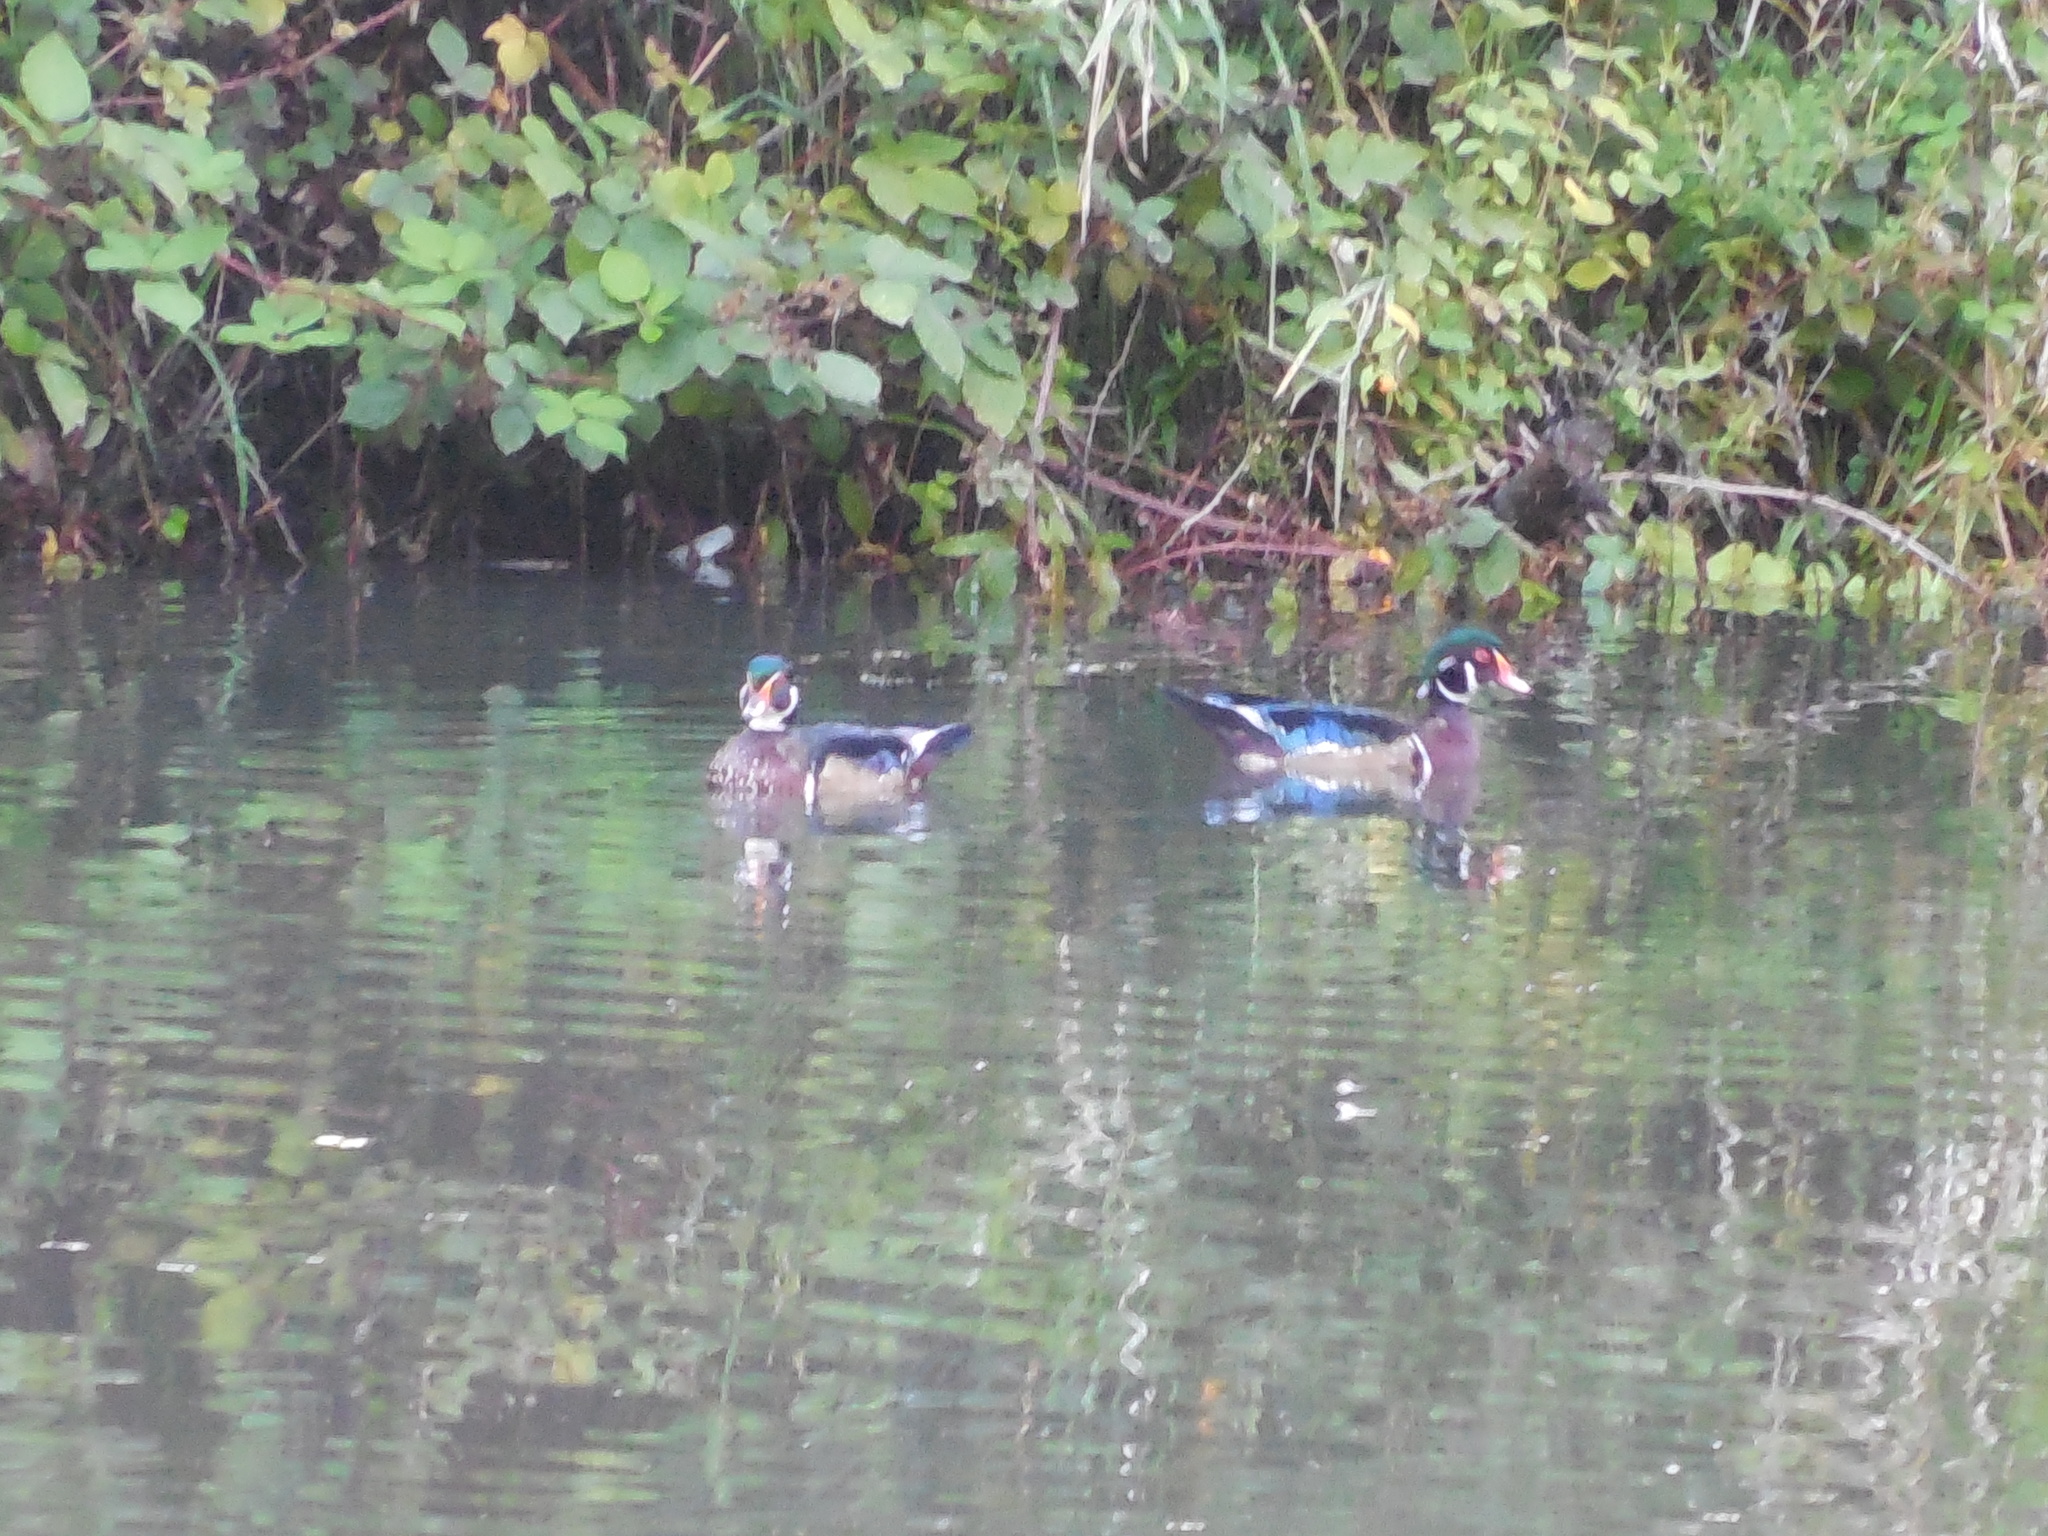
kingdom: Animalia
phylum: Chordata
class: Aves
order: Anseriformes
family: Anatidae
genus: Aix
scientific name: Aix sponsa
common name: Wood duck
